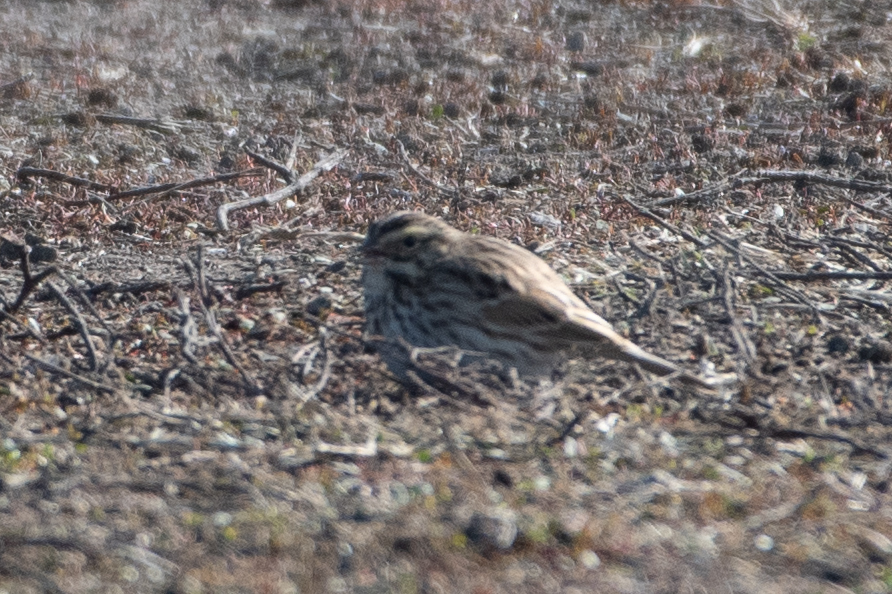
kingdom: Animalia
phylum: Chordata
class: Aves
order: Passeriformes
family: Passerellidae
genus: Passerculus
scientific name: Passerculus sandwichensis
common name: Savannah sparrow
